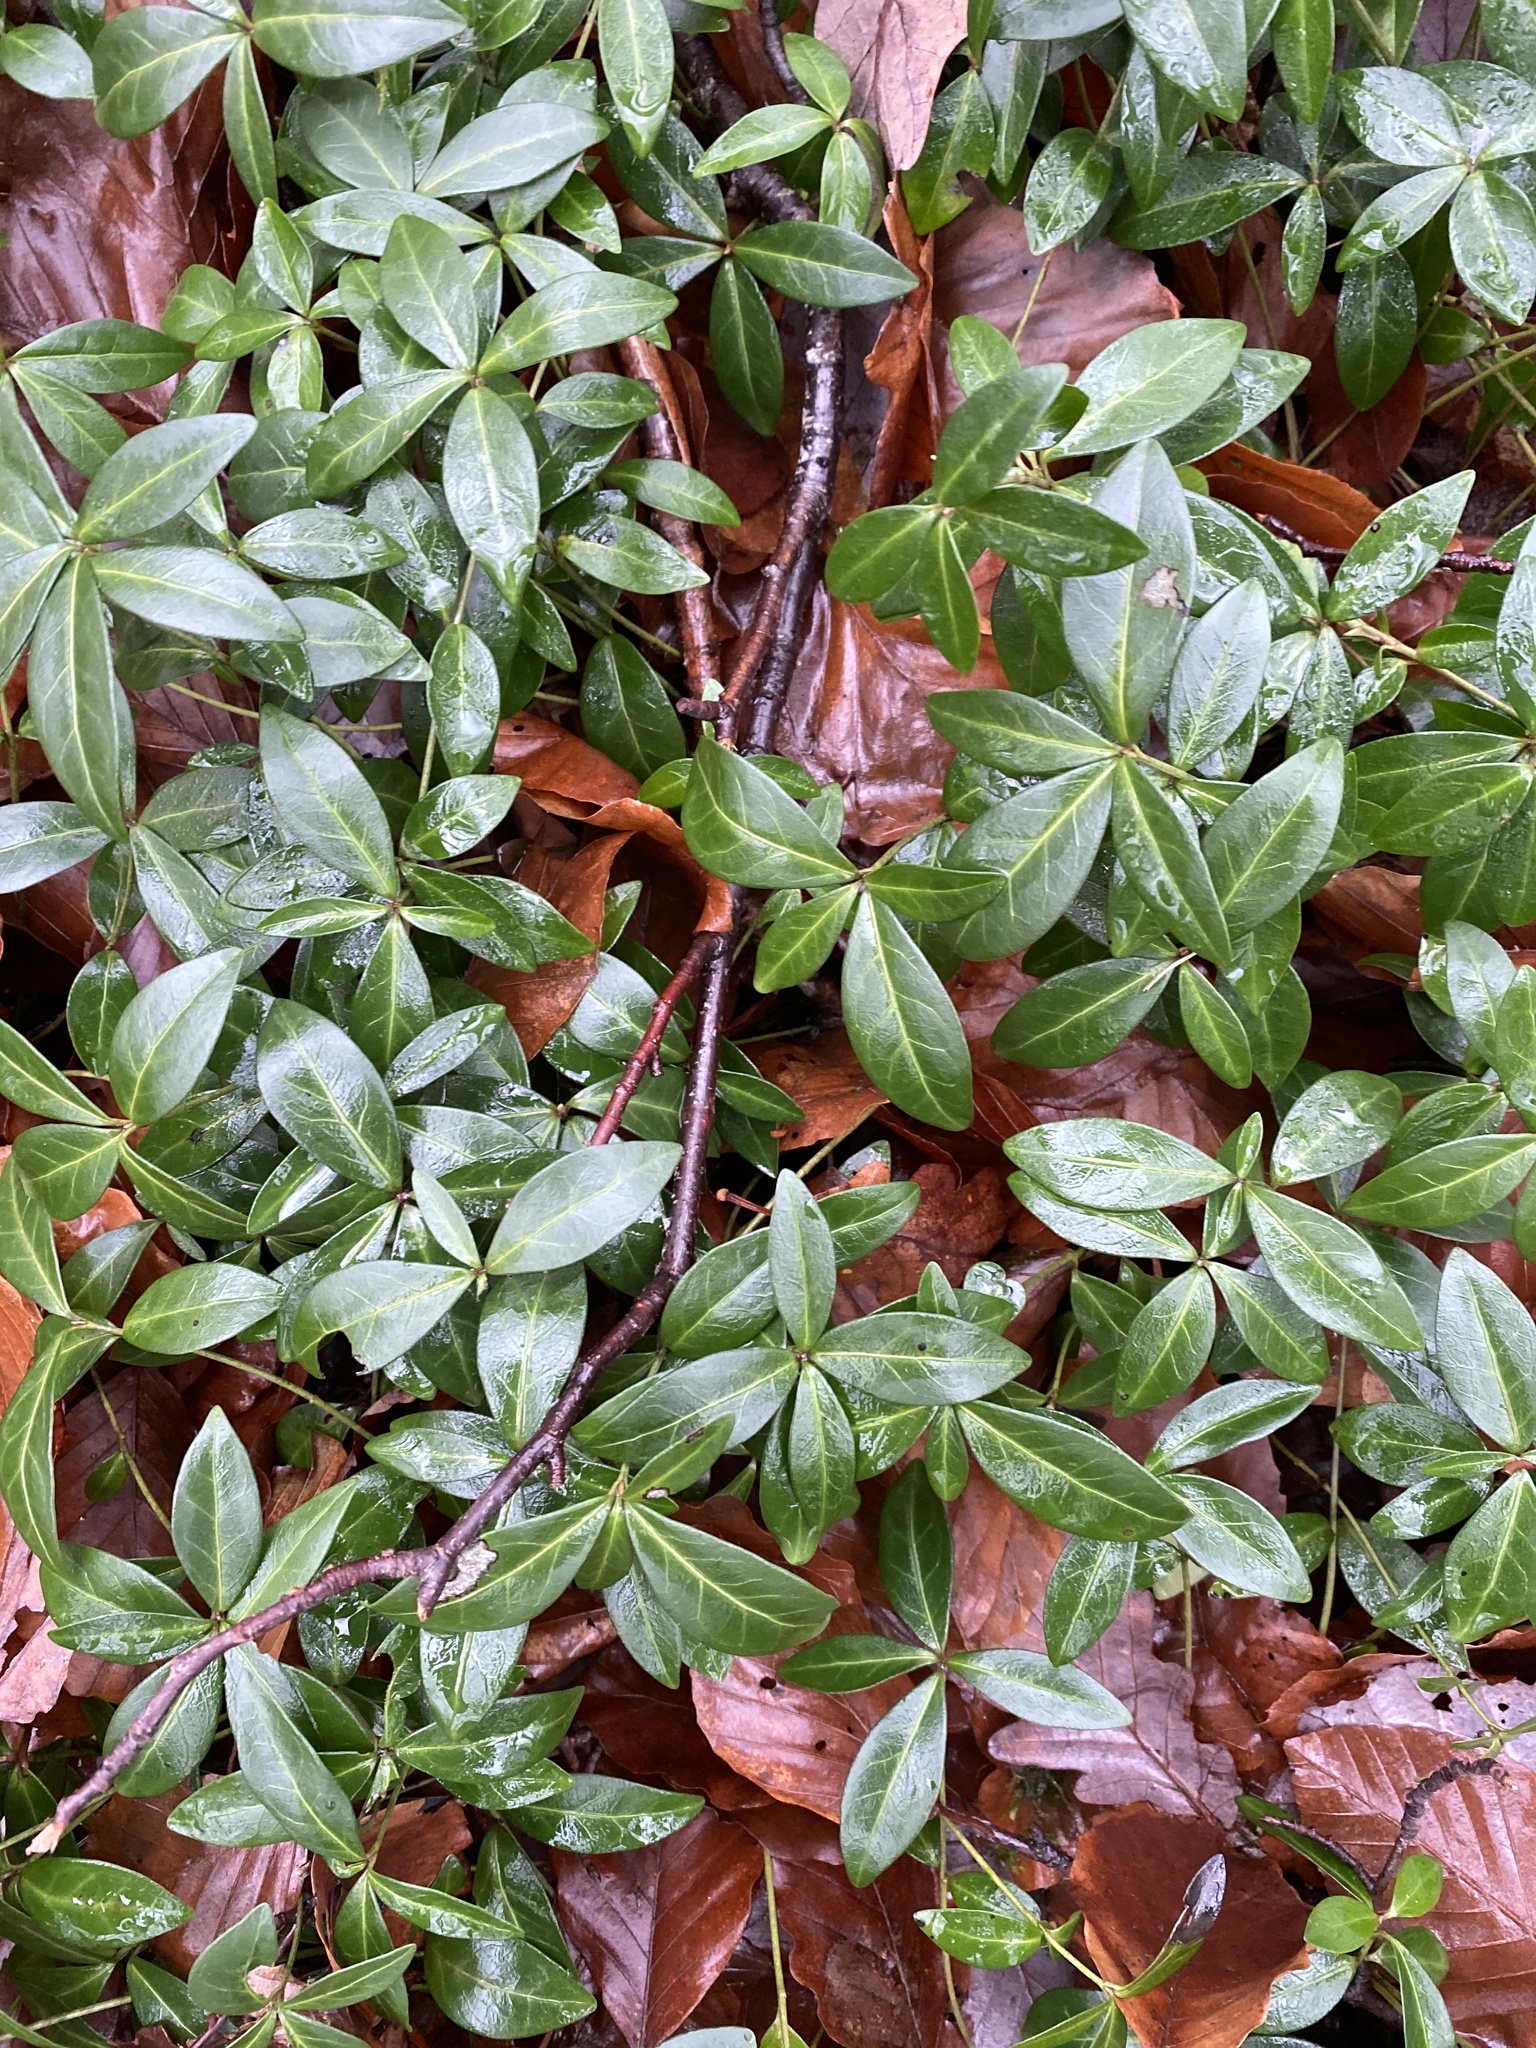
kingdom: Plantae
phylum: Tracheophyta
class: Magnoliopsida
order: Gentianales
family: Apocynaceae
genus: Vinca
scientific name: Vinca minor
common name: Lesser periwinkle
